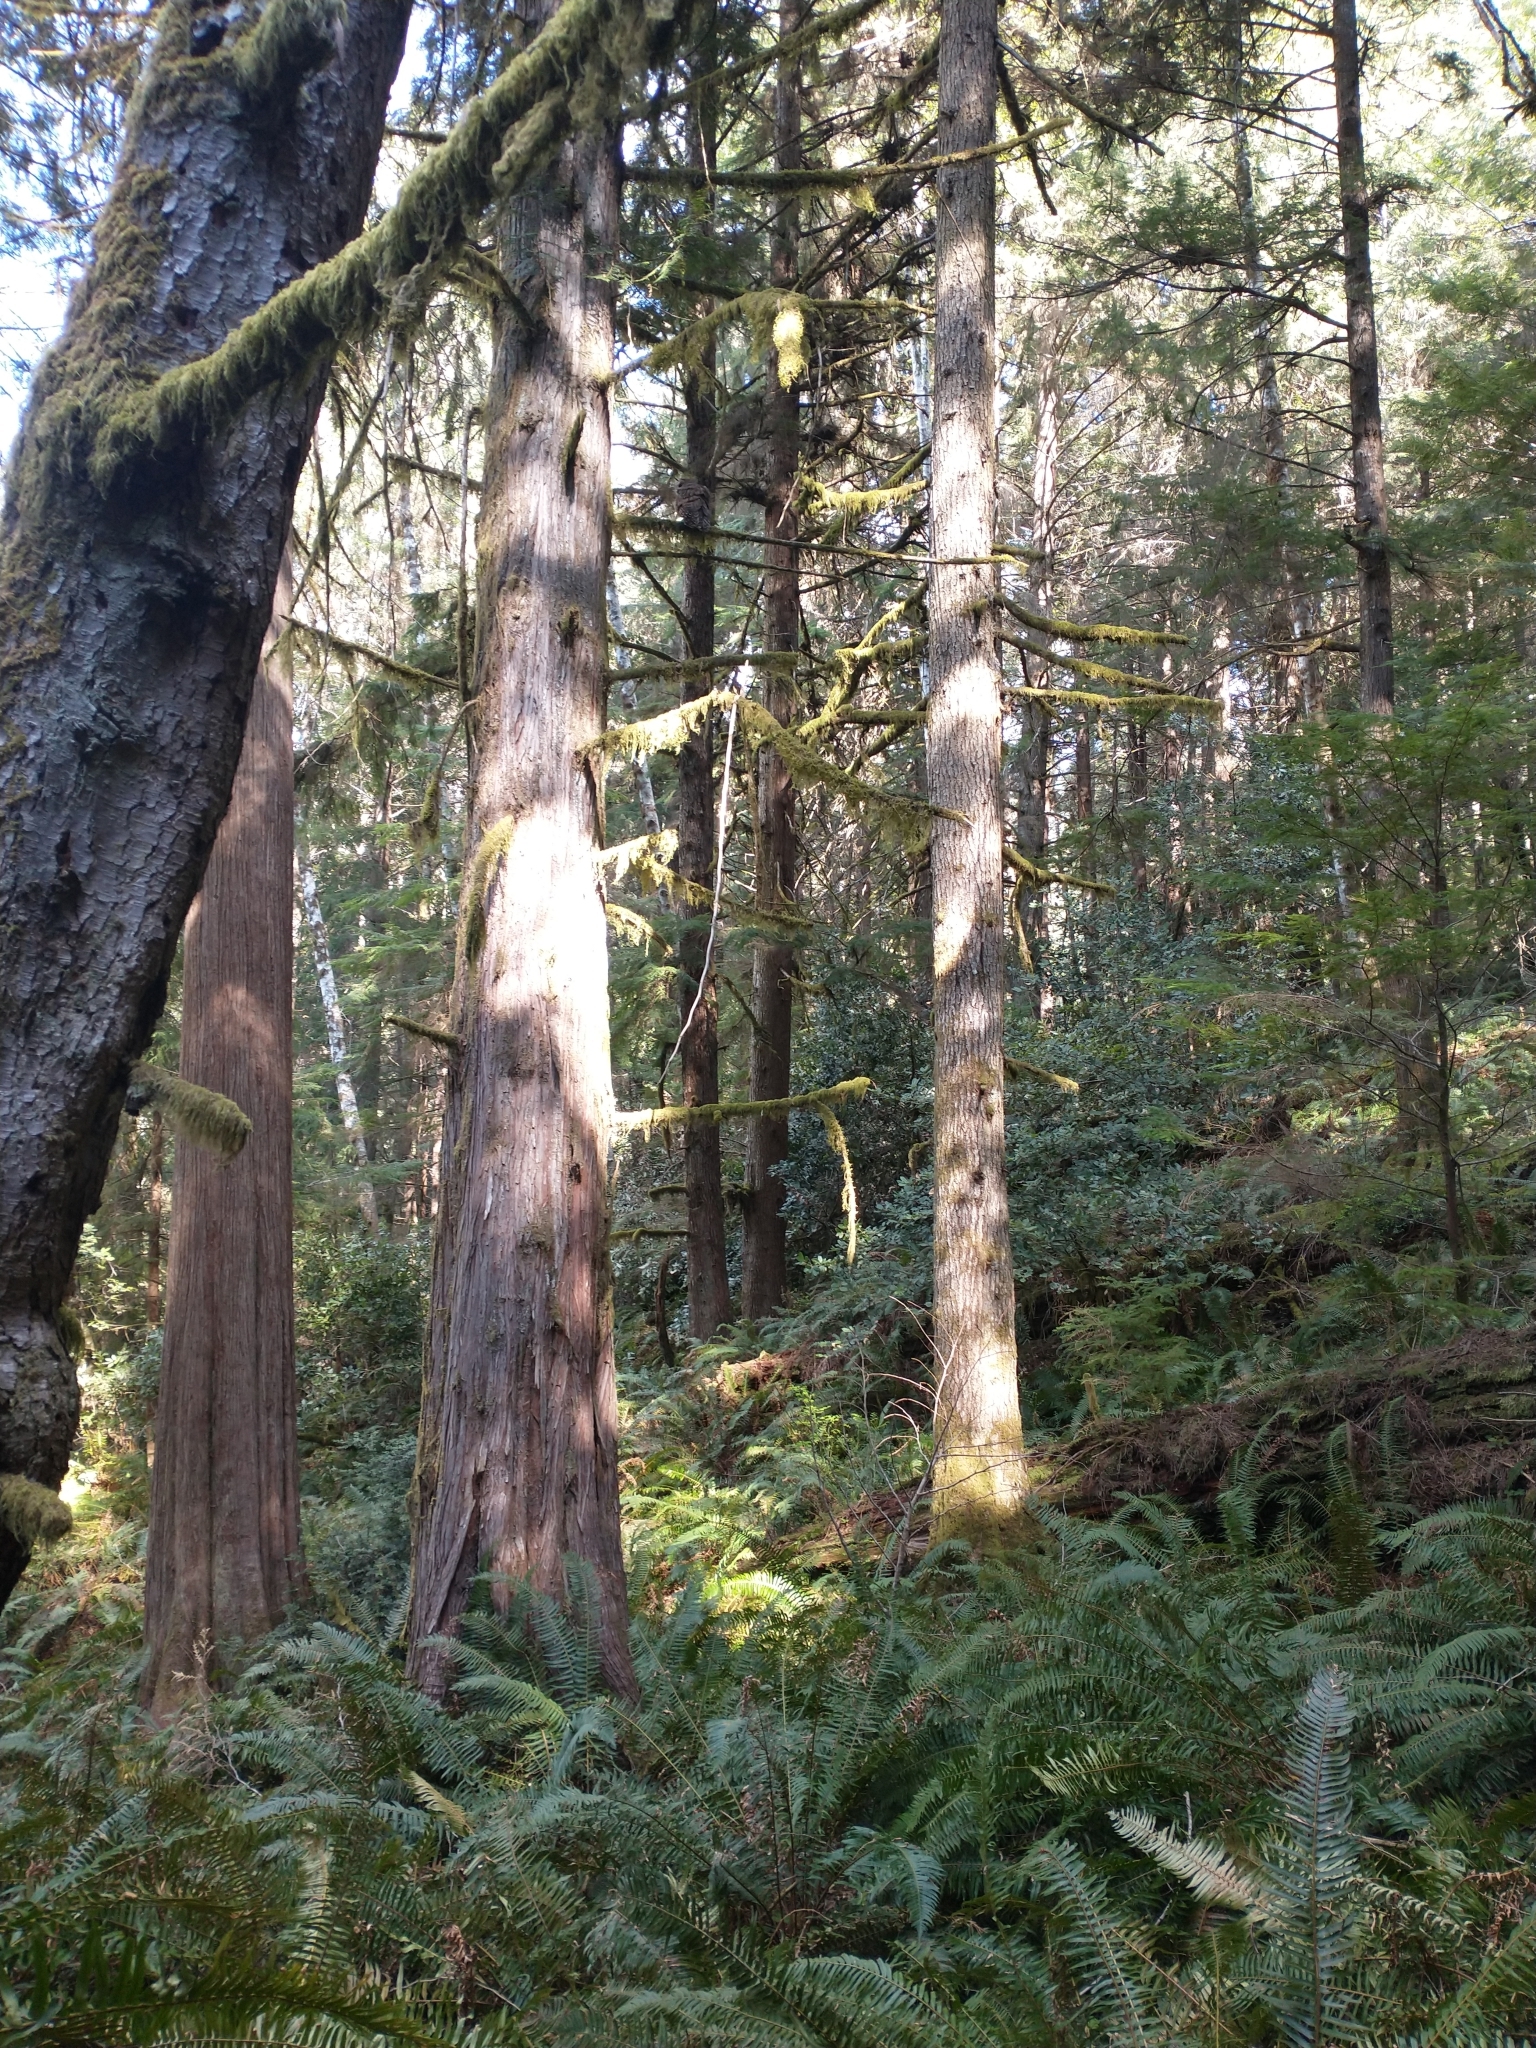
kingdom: Plantae
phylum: Tracheophyta
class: Pinopsida
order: Pinales
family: Pinaceae
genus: Tsuga
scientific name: Tsuga heterophylla
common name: Western hemlock
